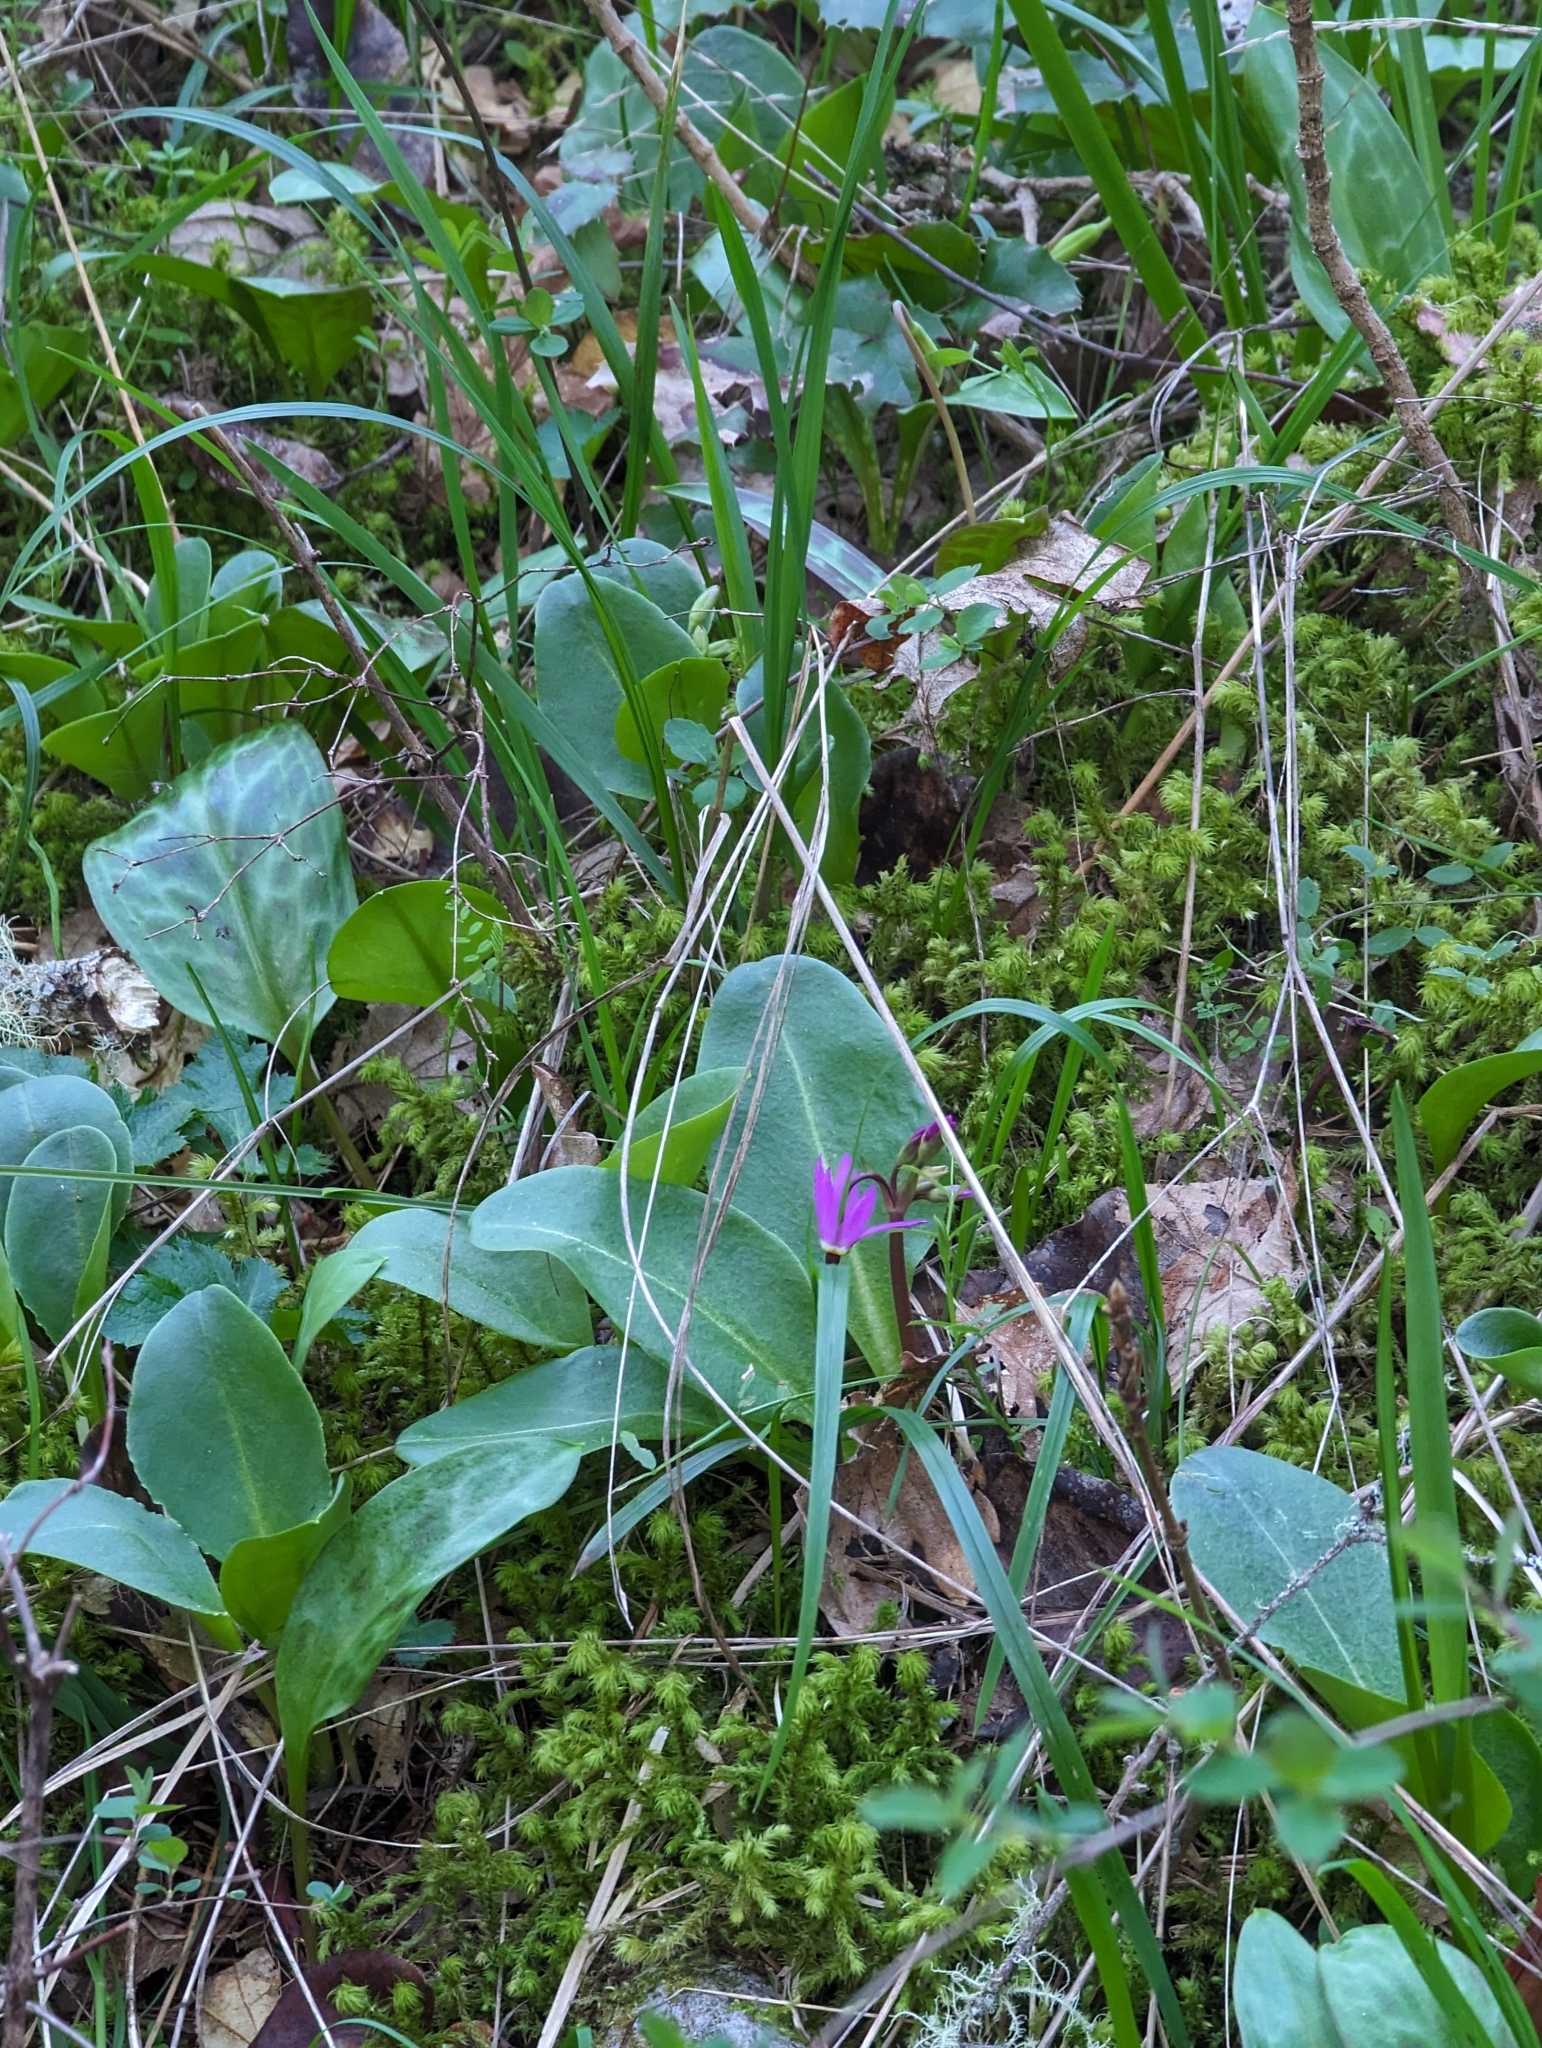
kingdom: Plantae
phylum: Tracheophyta
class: Magnoliopsida
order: Ericales
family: Primulaceae
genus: Dodecatheon
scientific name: Dodecatheon hendersonii
